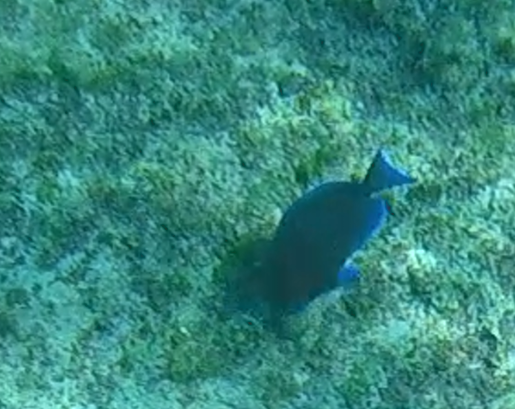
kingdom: Animalia
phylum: Chordata
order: Perciformes
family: Acanthuridae
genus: Acanthurus
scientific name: Acanthurus coeruleus
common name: Blue tang
